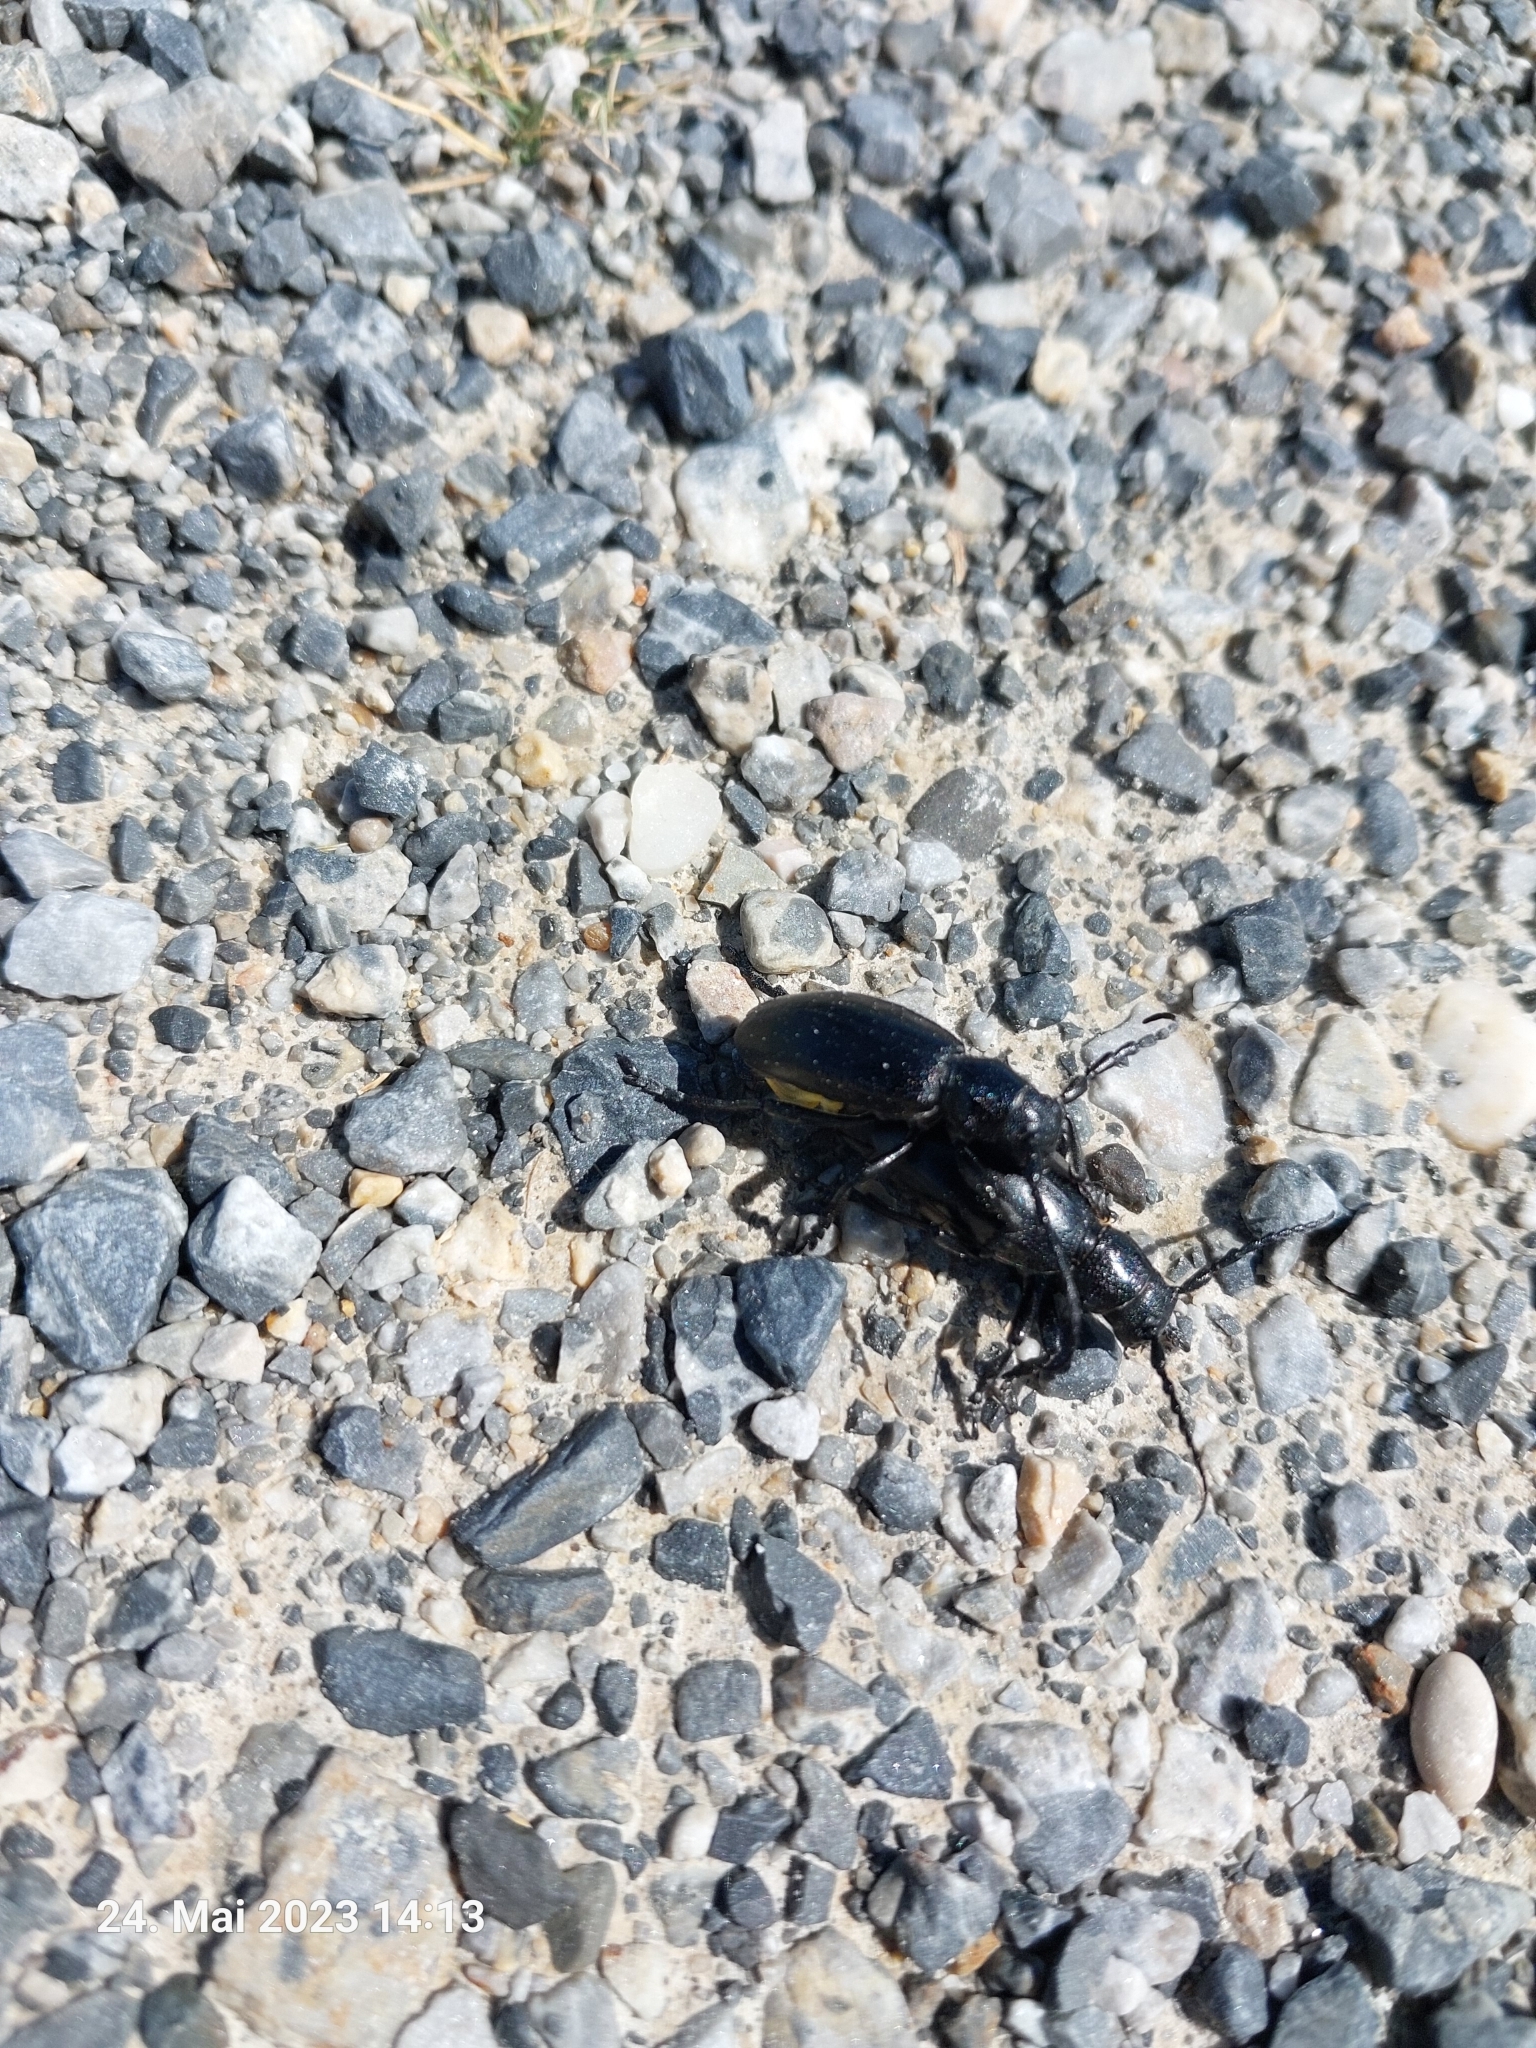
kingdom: Animalia
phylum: Arthropoda
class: Insecta
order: Coleoptera
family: Cerambycidae
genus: Dorcadion
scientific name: Dorcadion aethiops
